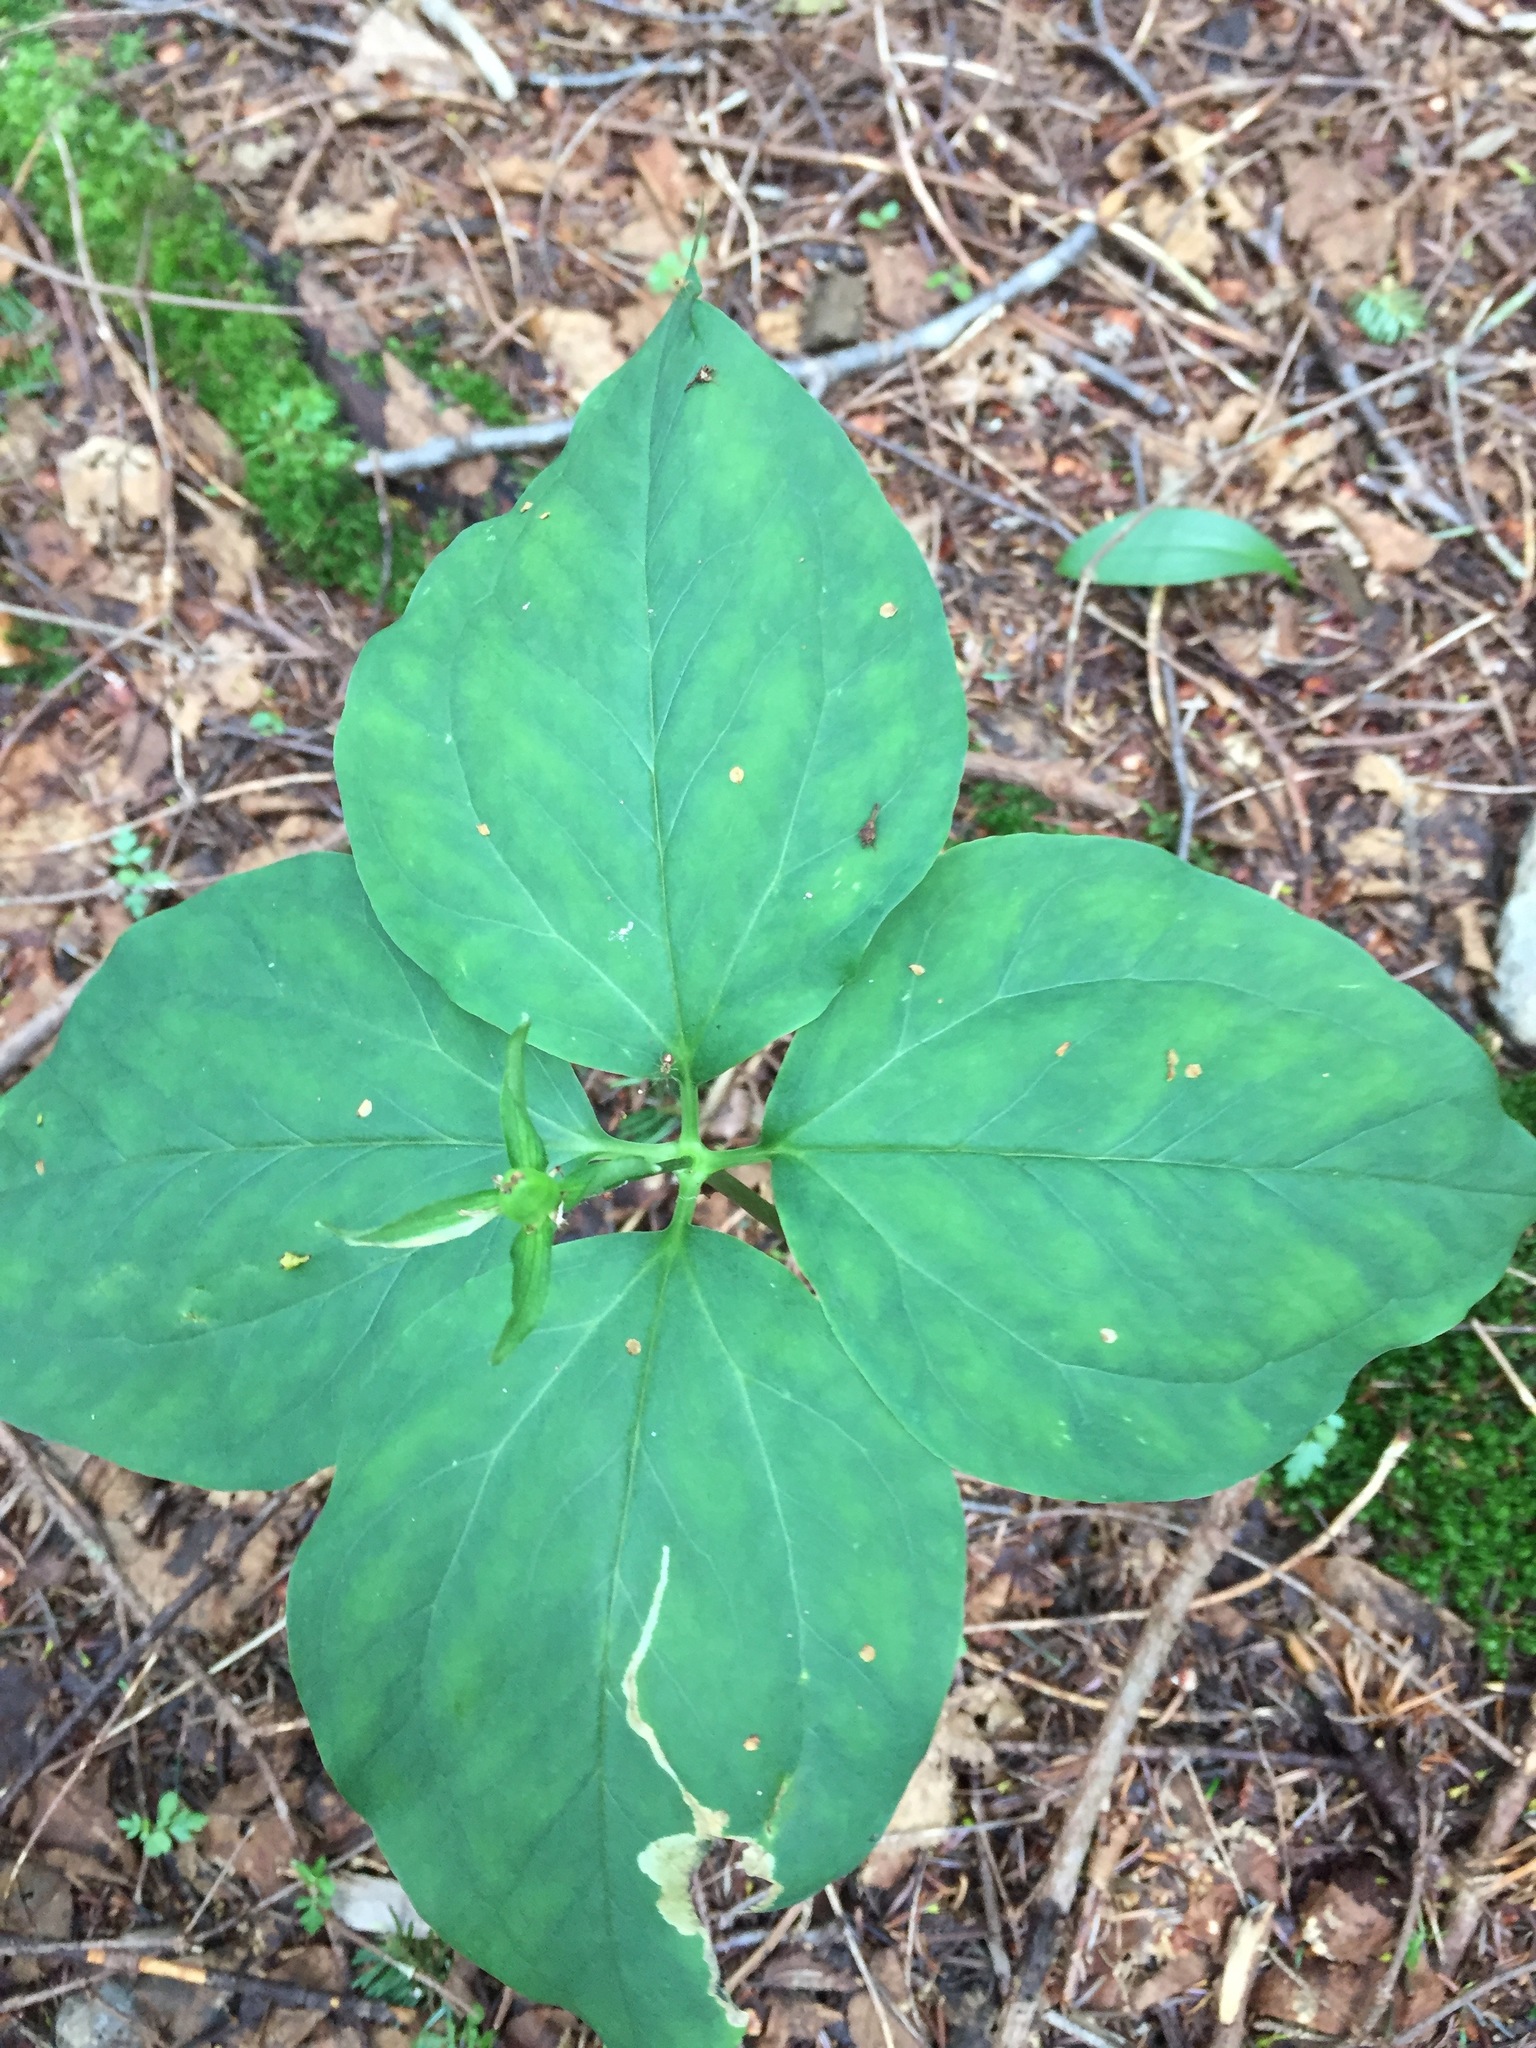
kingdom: Plantae
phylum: Tracheophyta
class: Liliopsida
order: Liliales
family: Melanthiaceae
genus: Trillium
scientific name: Trillium undulatum
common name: Paint trillium
